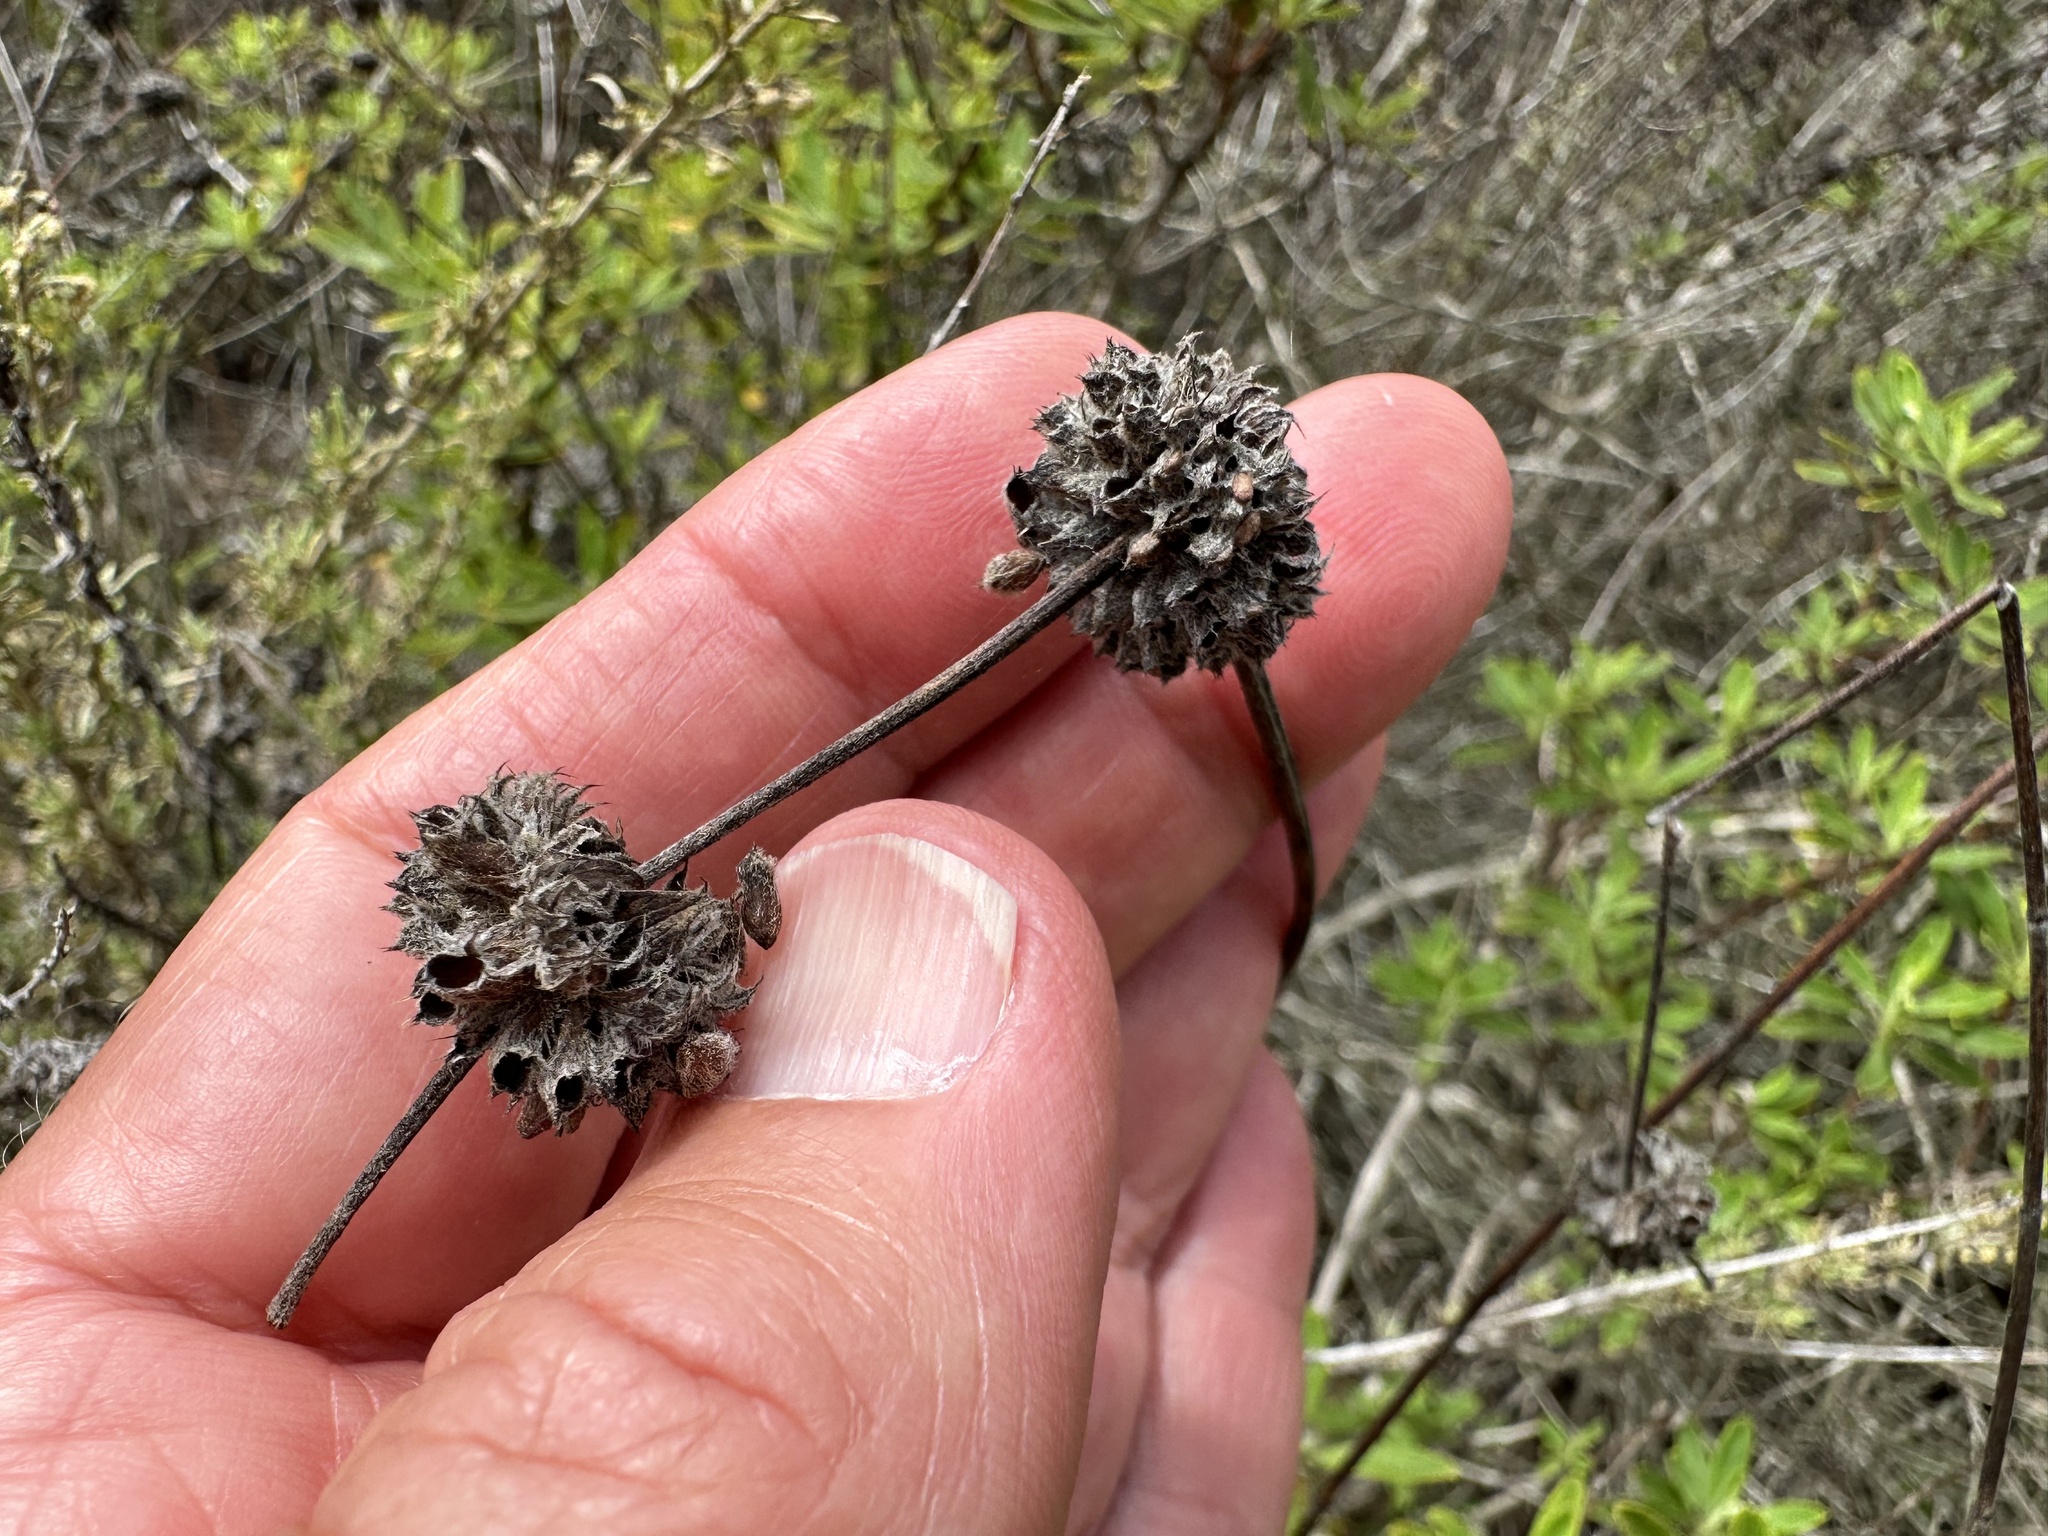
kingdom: Plantae
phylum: Tracheophyta
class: Magnoliopsida
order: Lamiales
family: Lamiaceae
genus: Salvia
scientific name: Salvia mellifera
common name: Black sage
